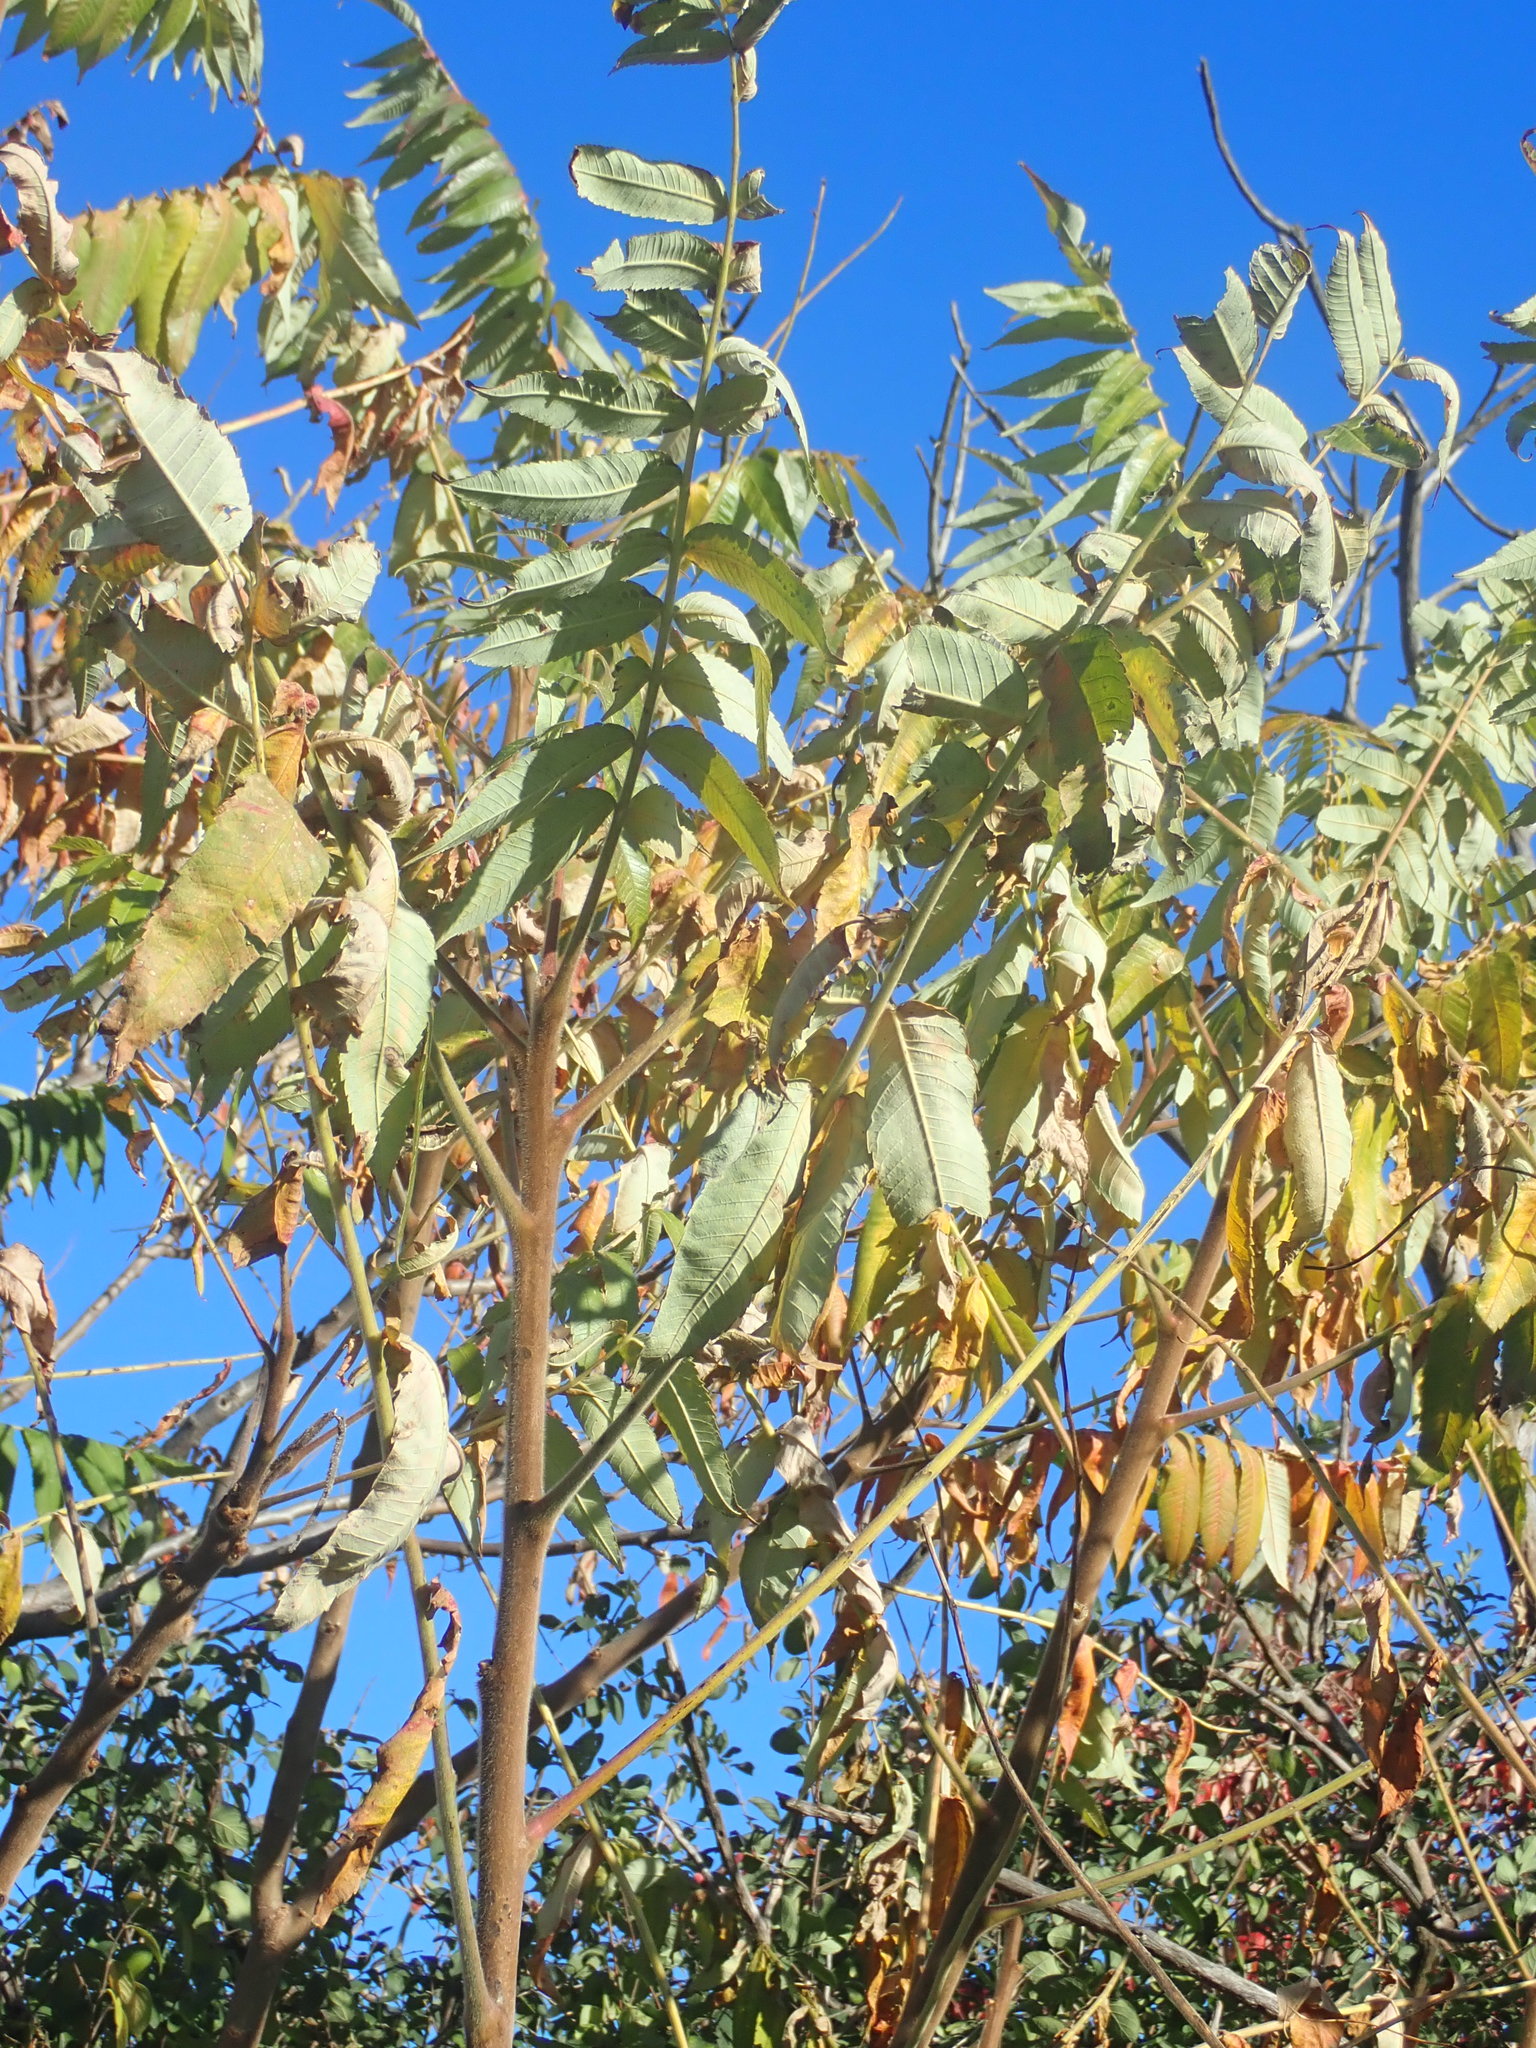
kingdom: Plantae
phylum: Tracheophyta
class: Magnoliopsida
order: Sapindales
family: Anacardiaceae
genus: Rhus
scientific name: Rhus typhina
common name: Staghorn sumac
